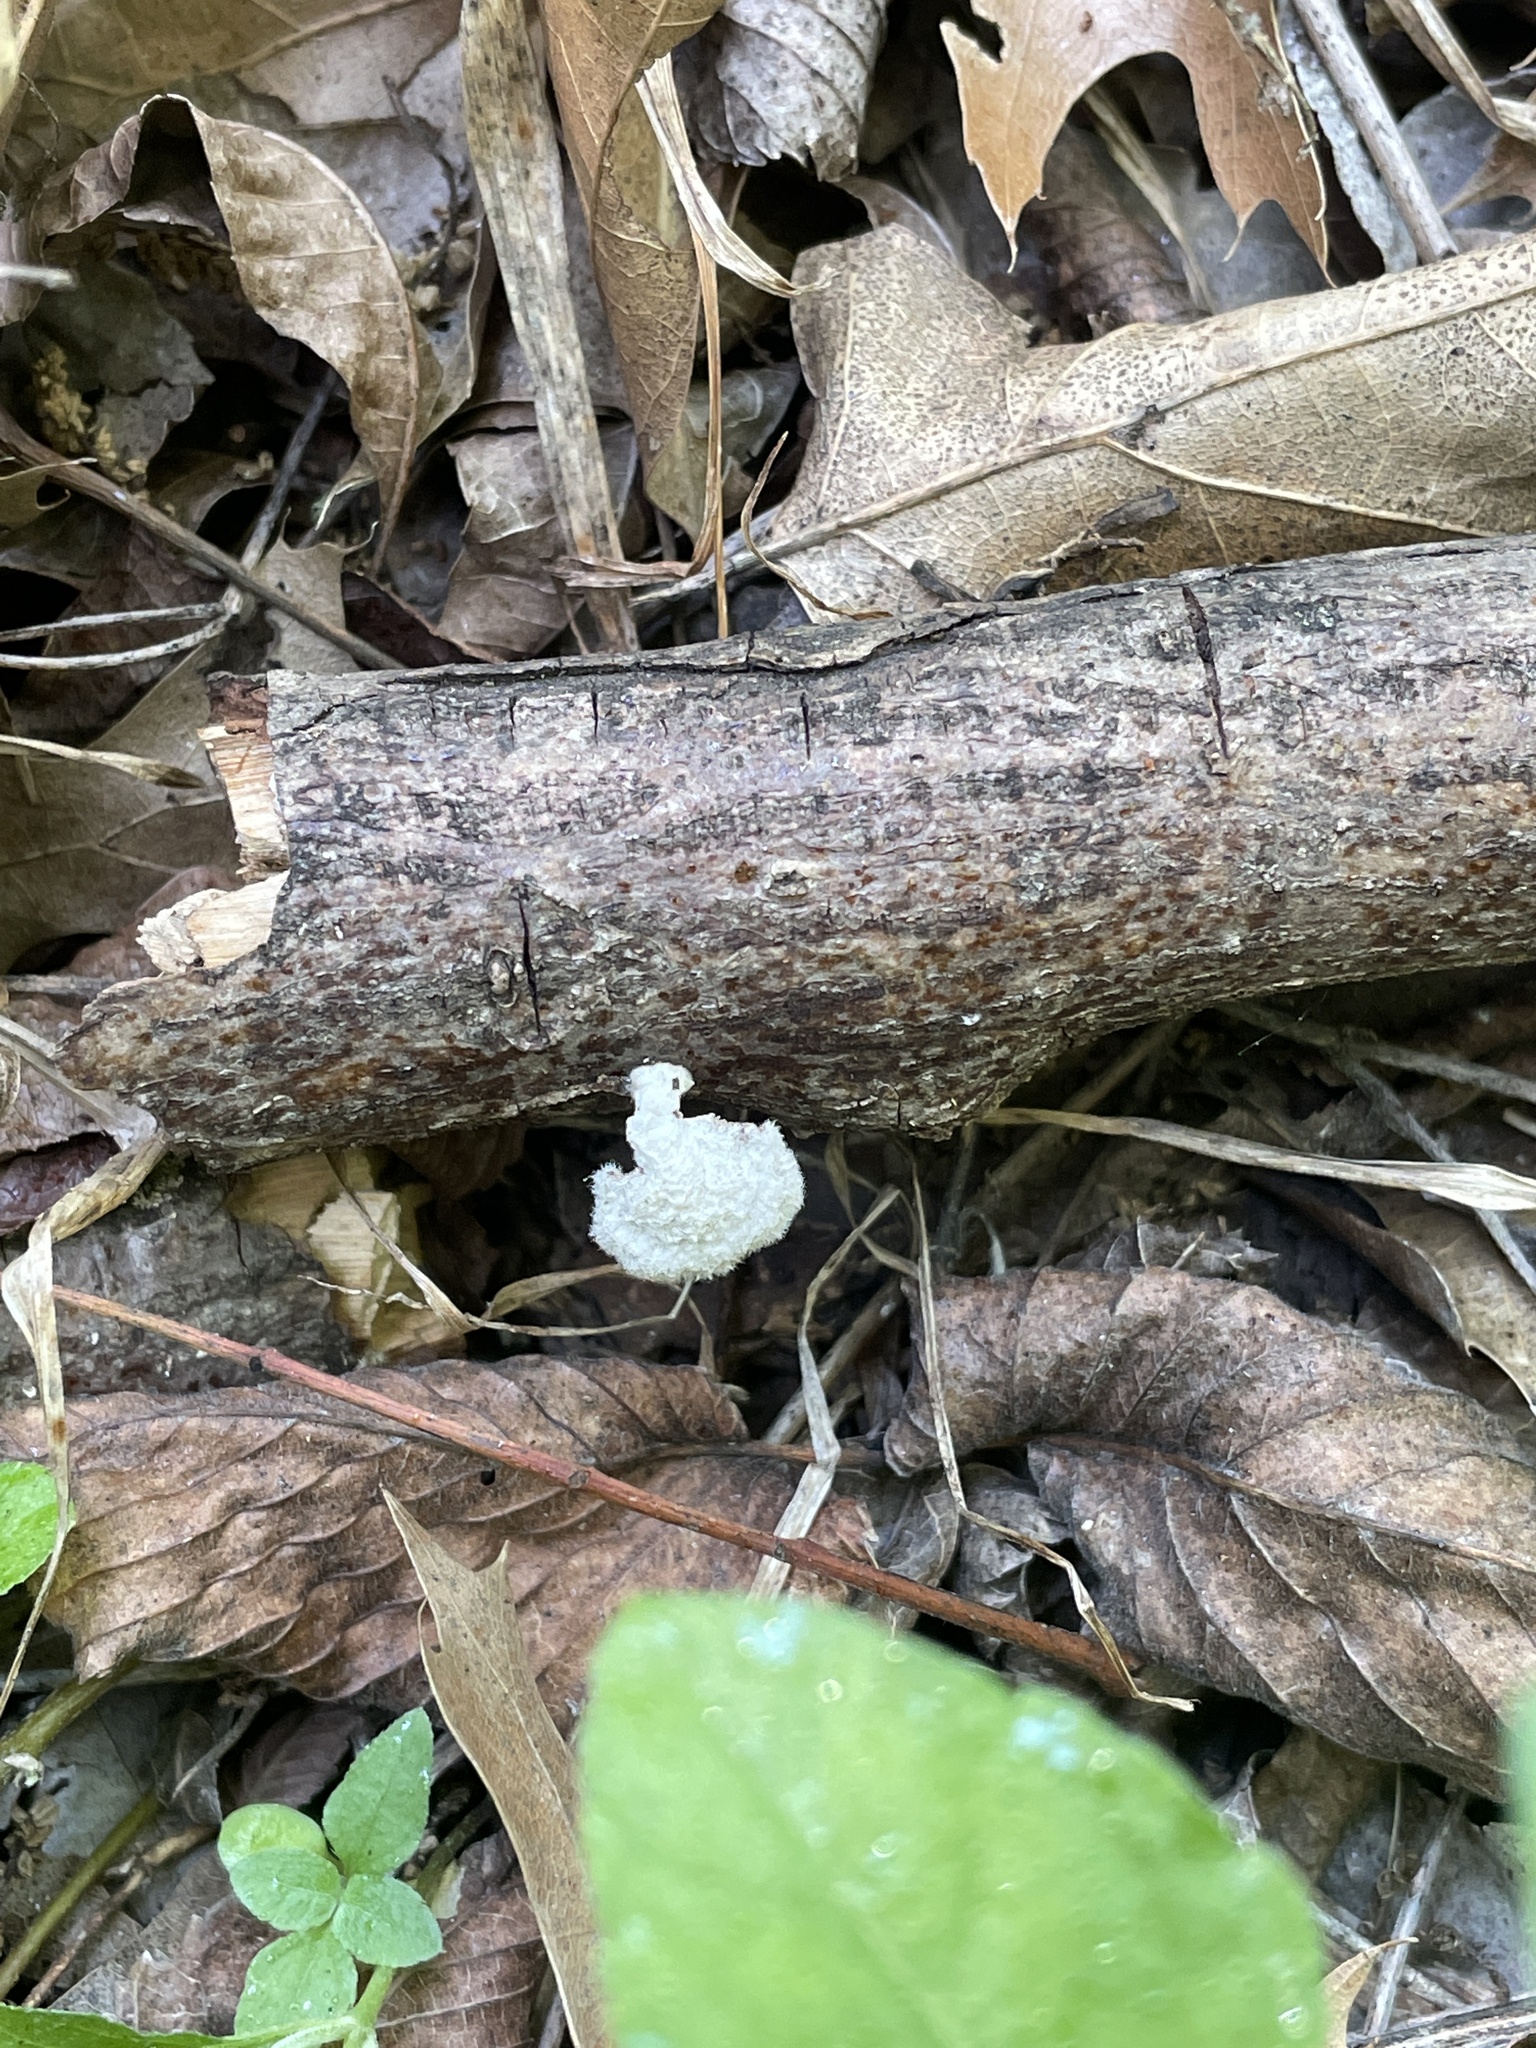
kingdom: Fungi
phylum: Basidiomycota
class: Agaricomycetes
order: Agaricales
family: Schizophyllaceae
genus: Schizophyllum
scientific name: Schizophyllum commune
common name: Common porecrust
